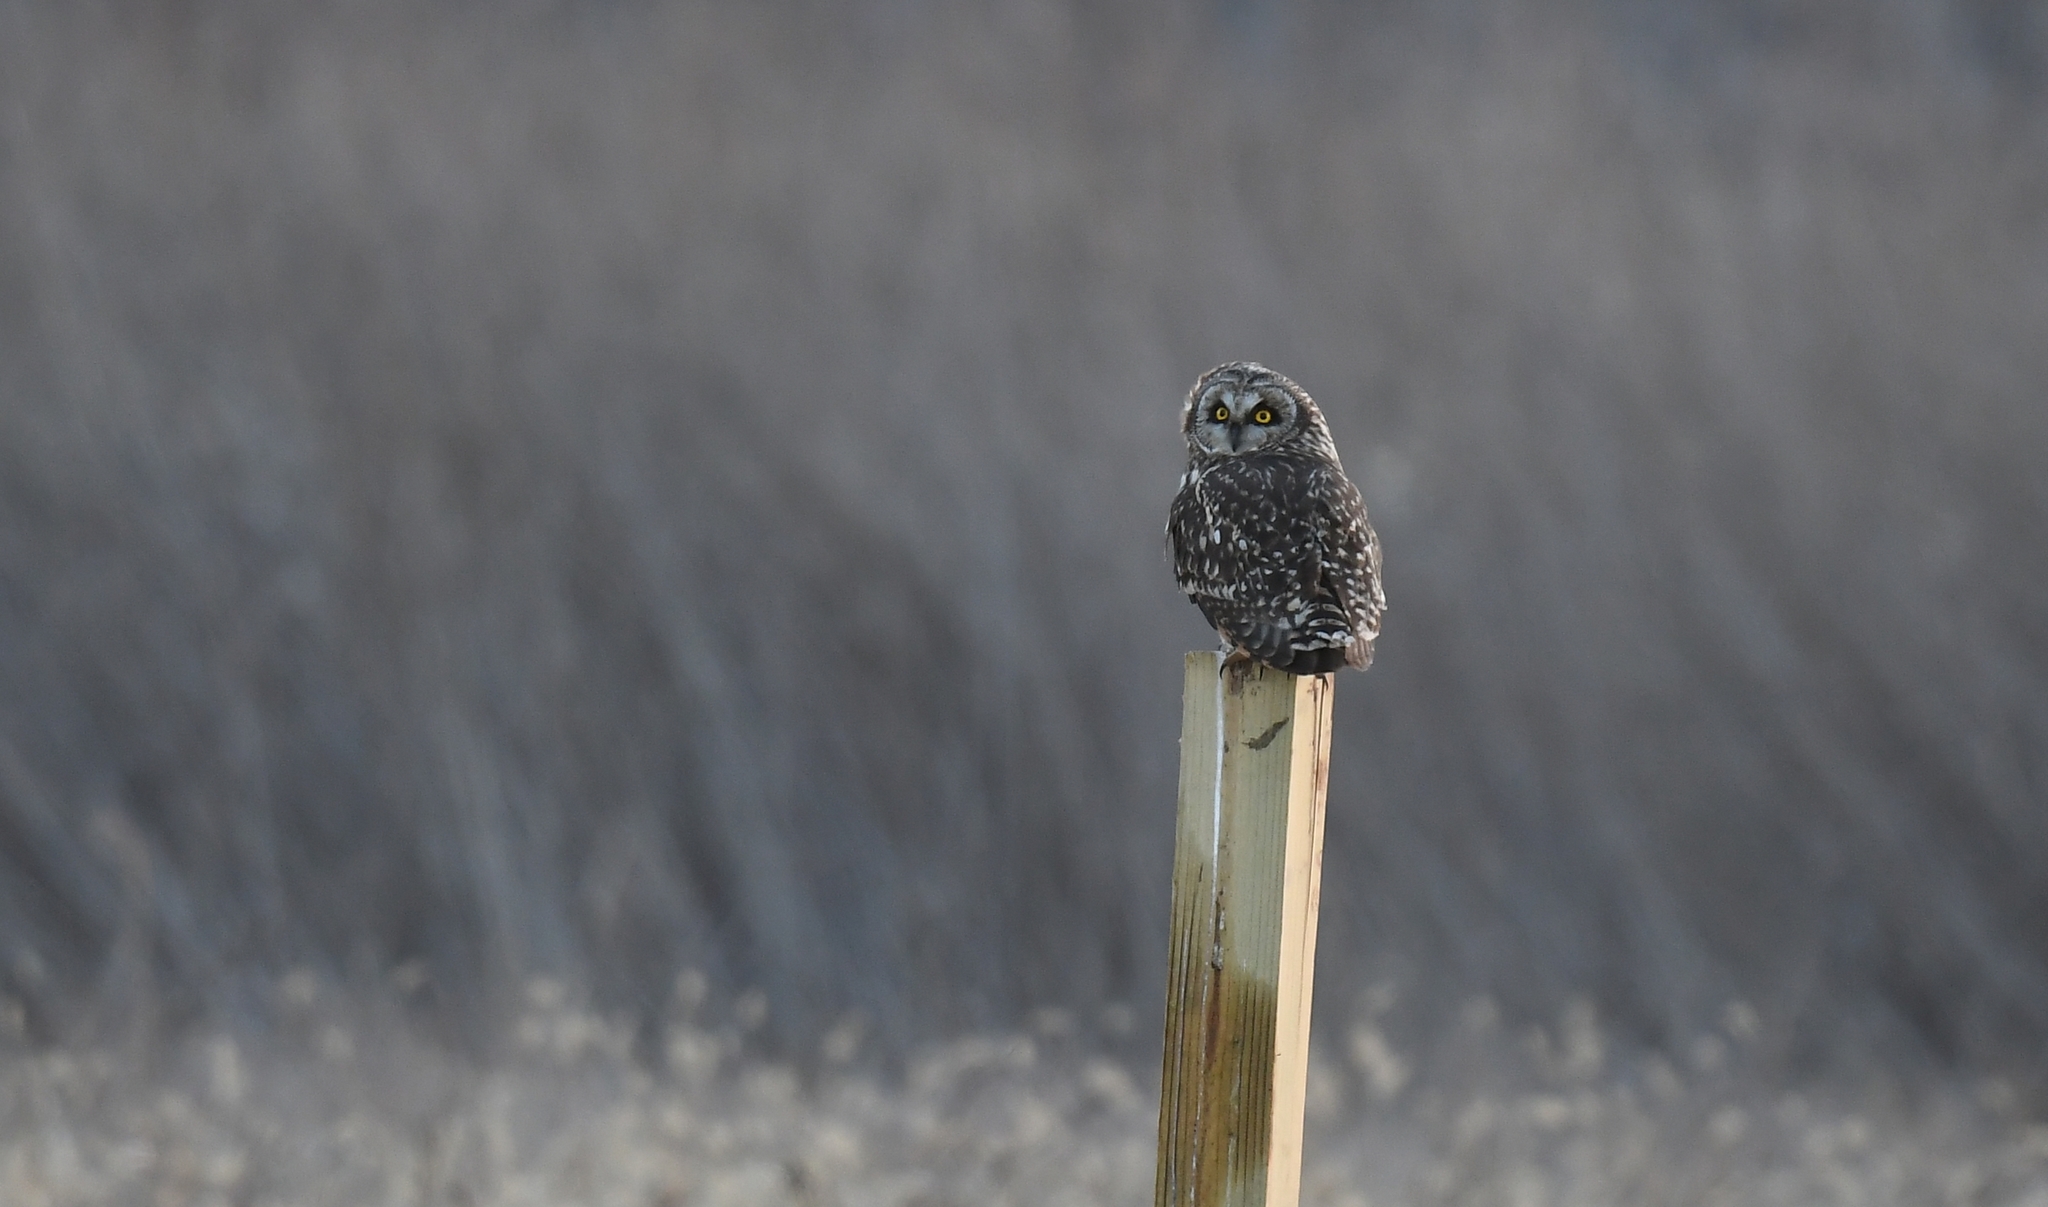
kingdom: Animalia
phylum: Chordata
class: Aves
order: Strigiformes
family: Strigidae
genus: Asio
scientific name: Asio flammeus
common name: Short-eared owl
